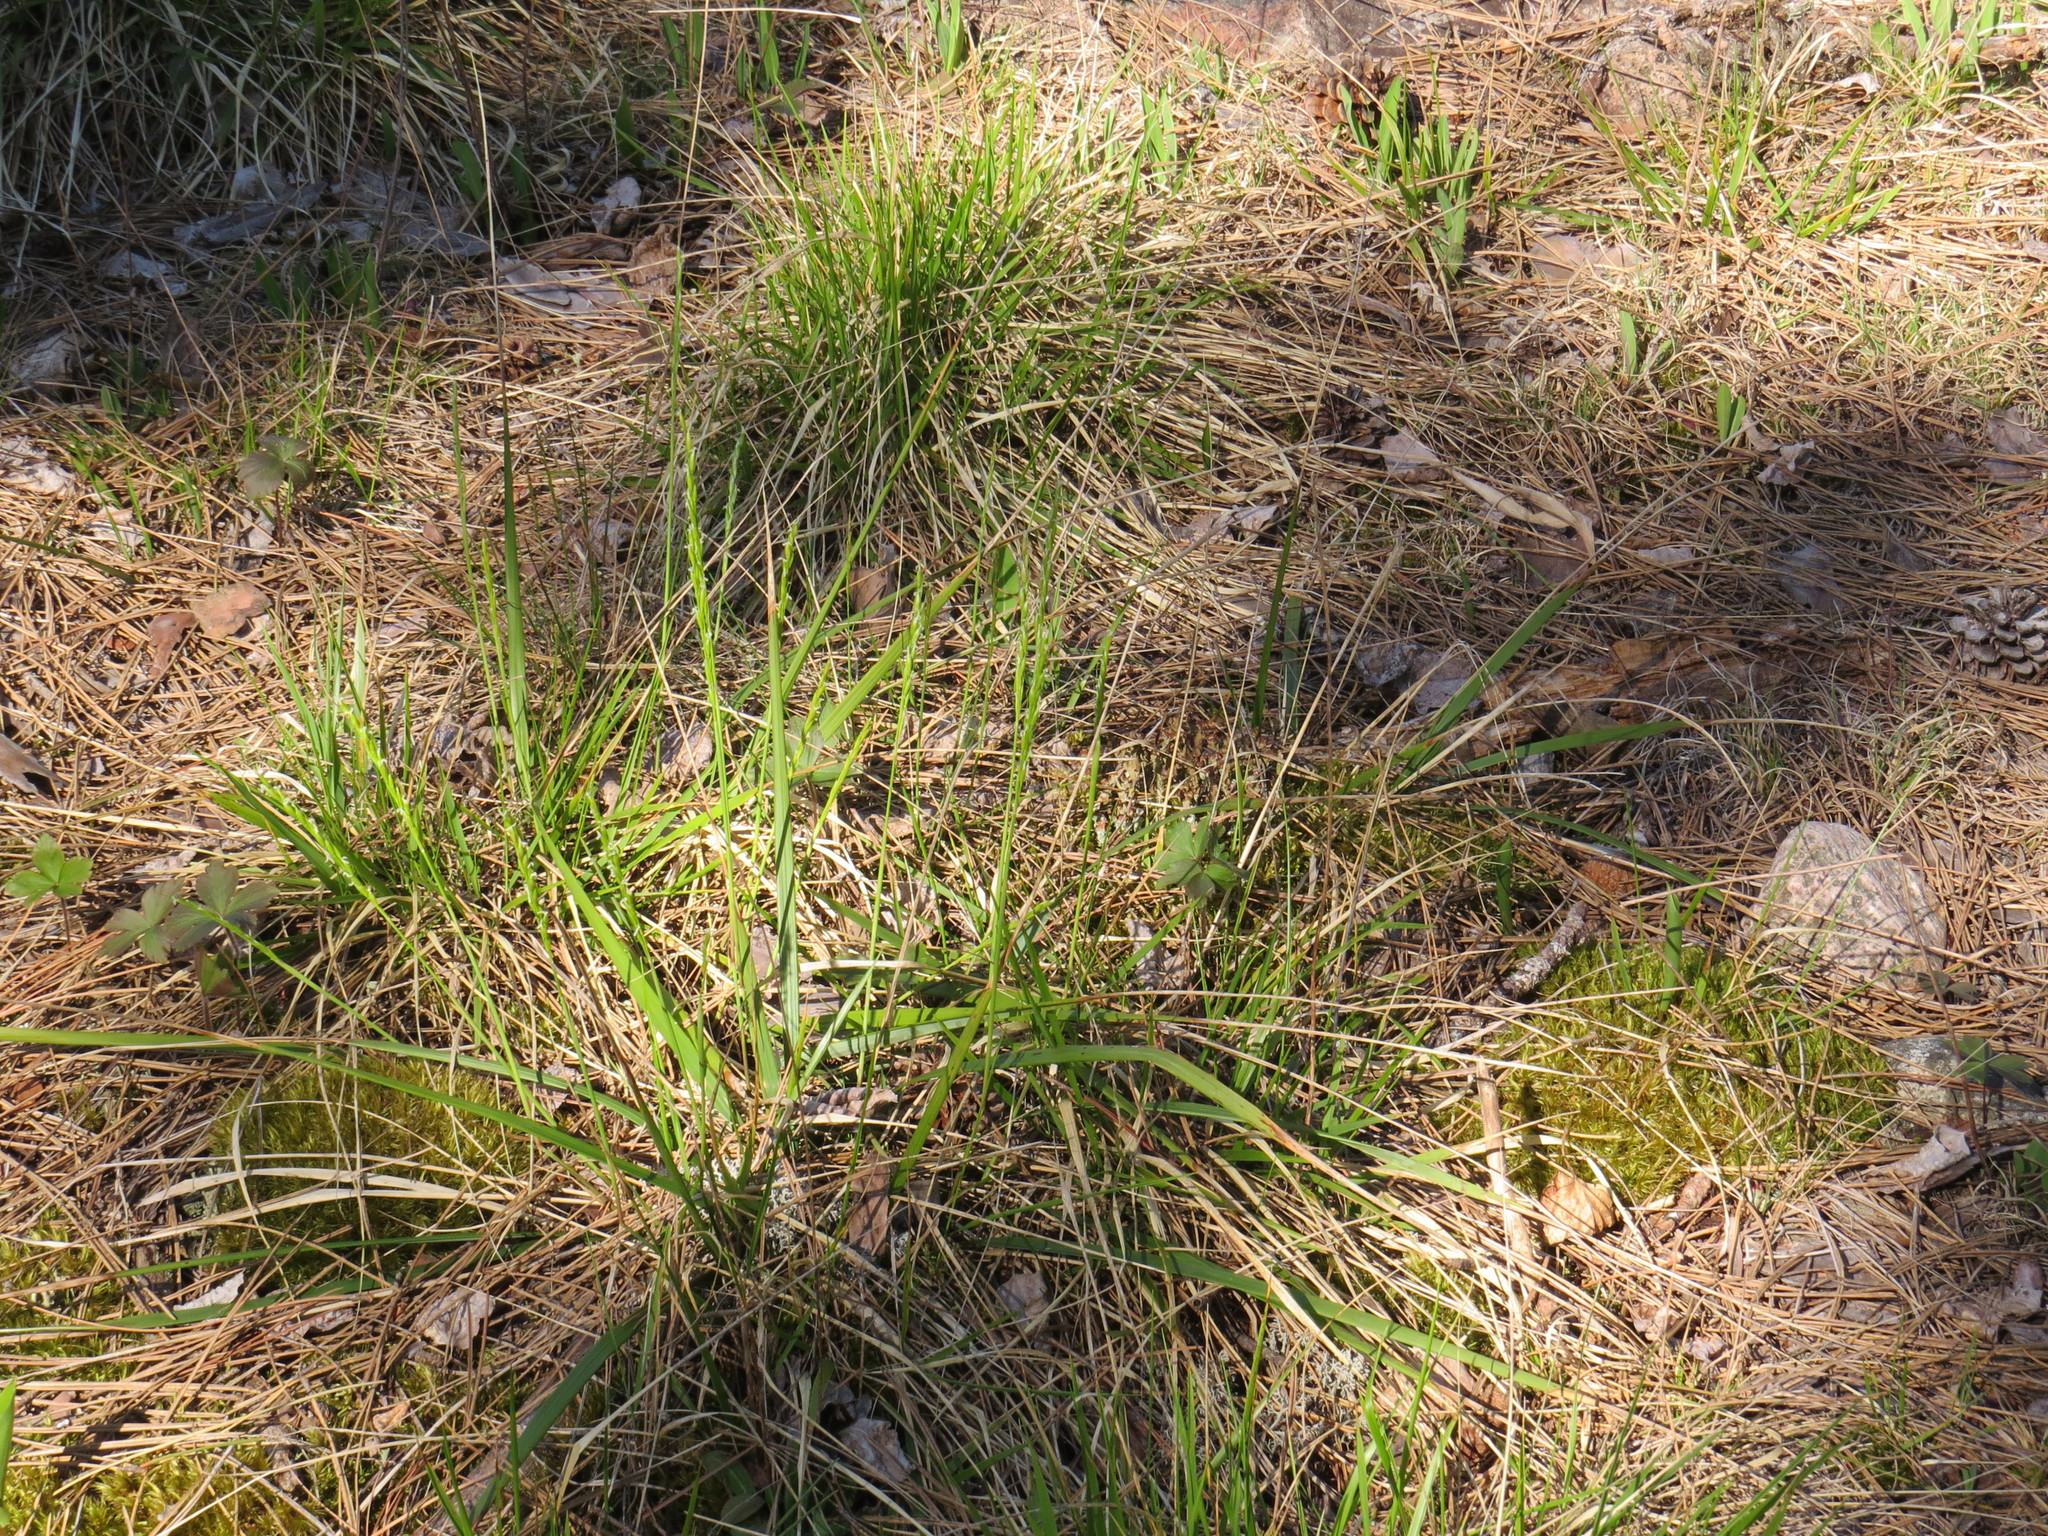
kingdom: Plantae
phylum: Tracheophyta
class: Liliopsida
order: Poales
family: Poaceae
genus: Oryzopsis
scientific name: Oryzopsis asperifolia
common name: Rough-leaved mountain rice
